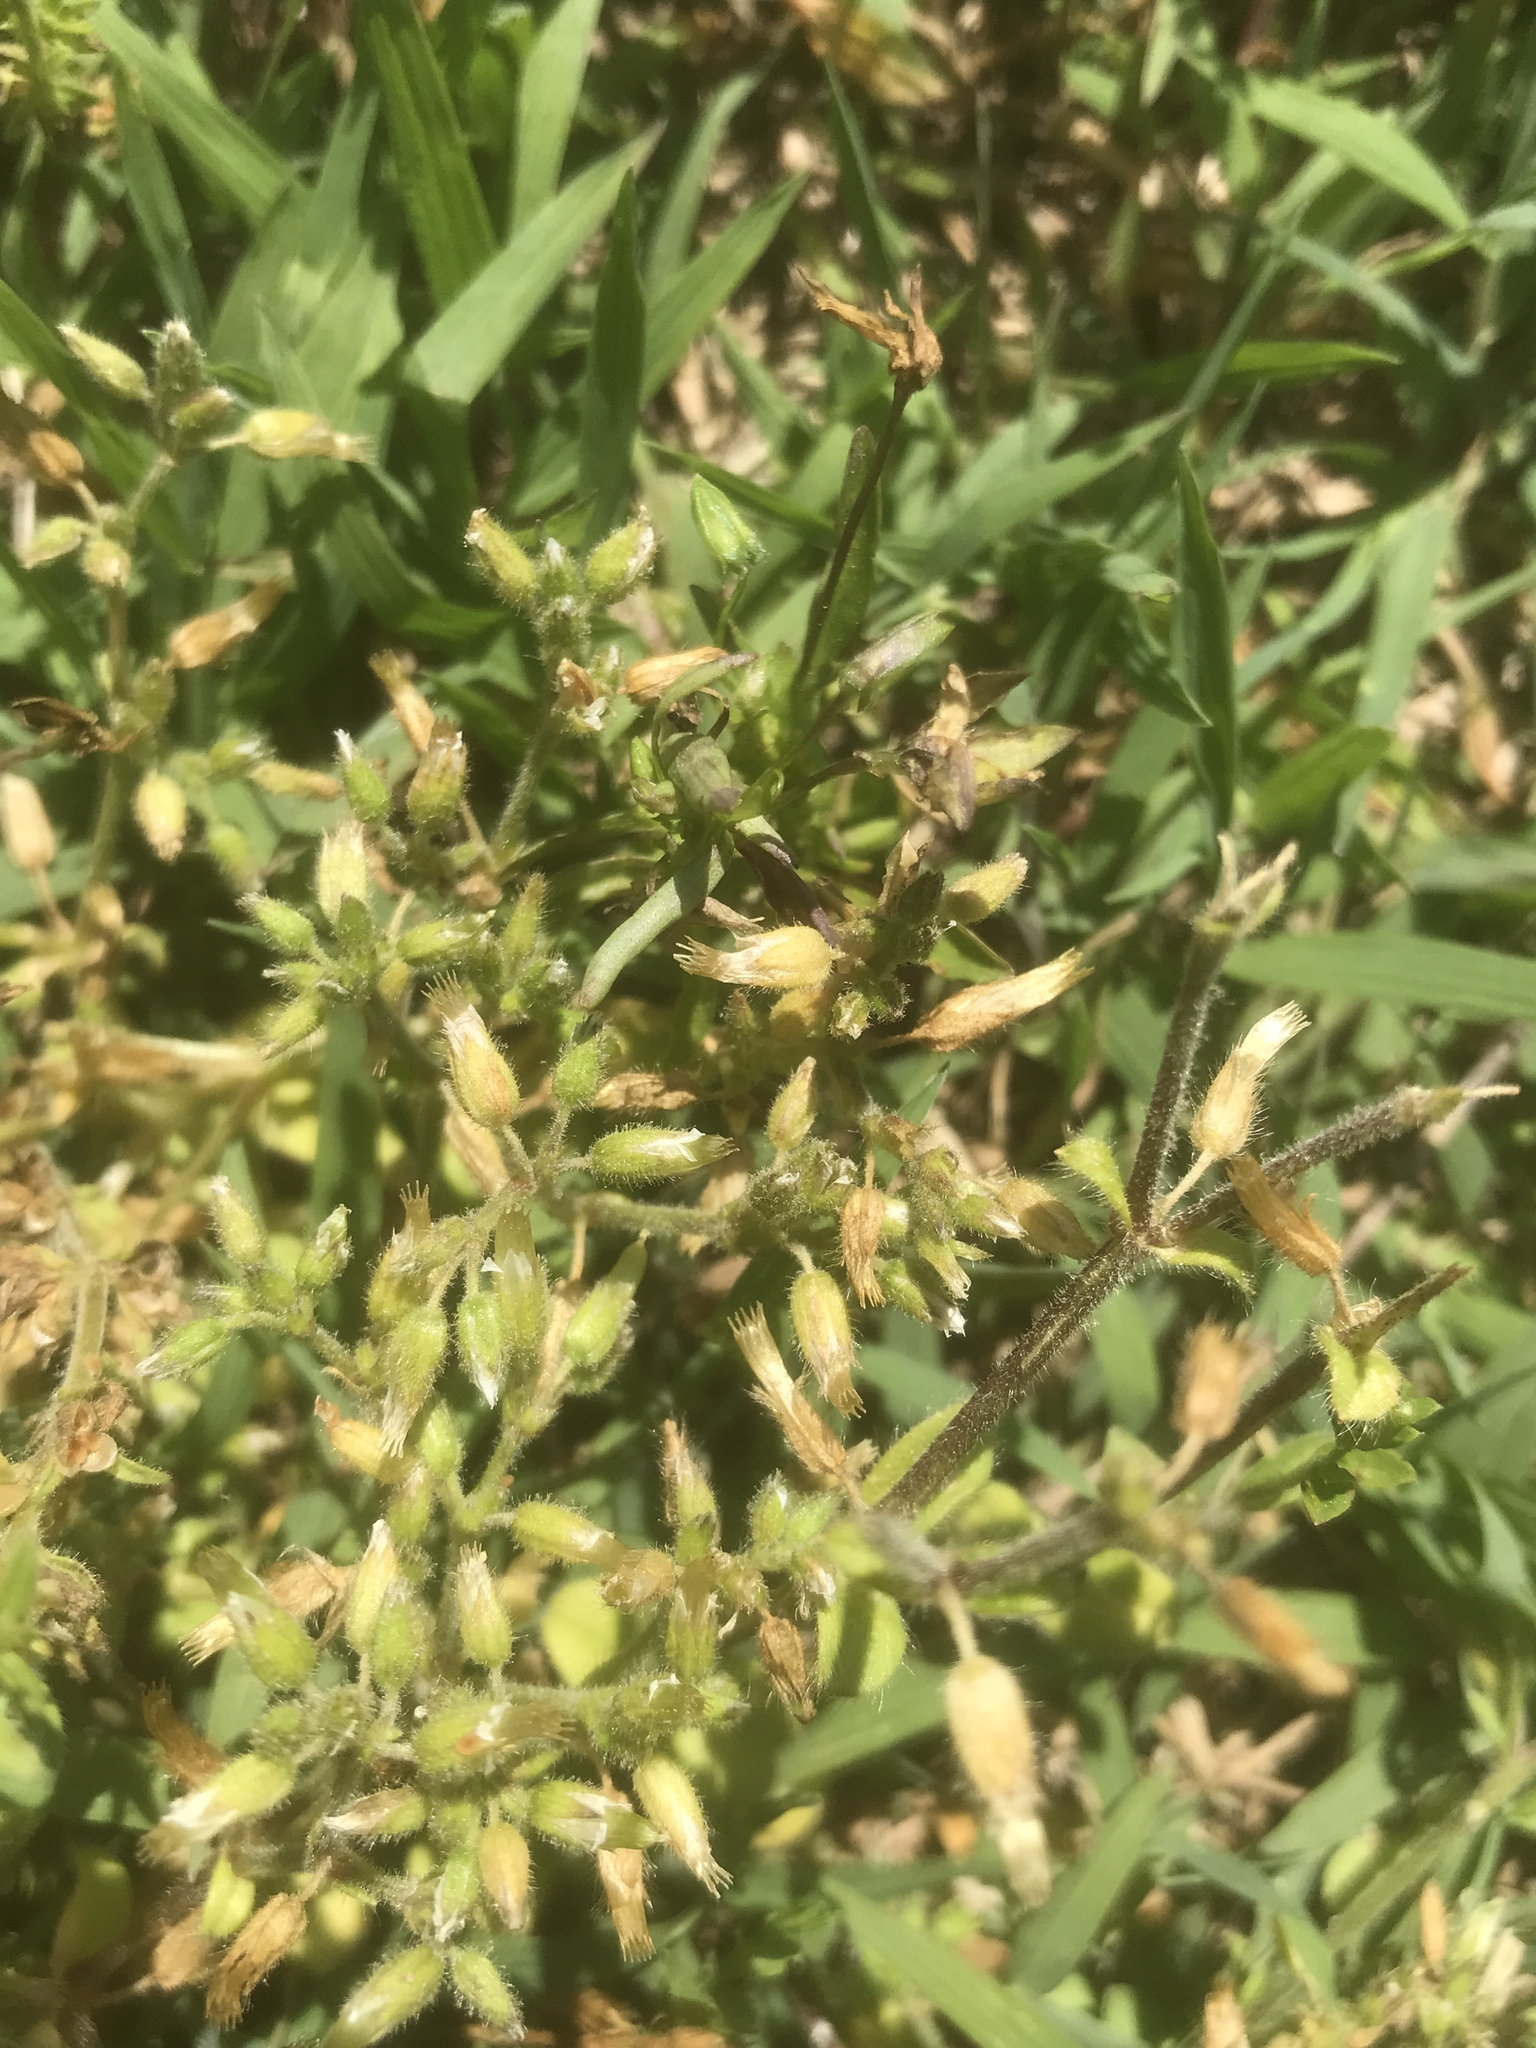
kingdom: Plantae
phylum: Tracheophyta
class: Magnoliopsida
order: Caryophyllales
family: Caryophyllaceae
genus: Cerastium
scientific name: Cerastium glomeratum
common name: Sticky chickweed
